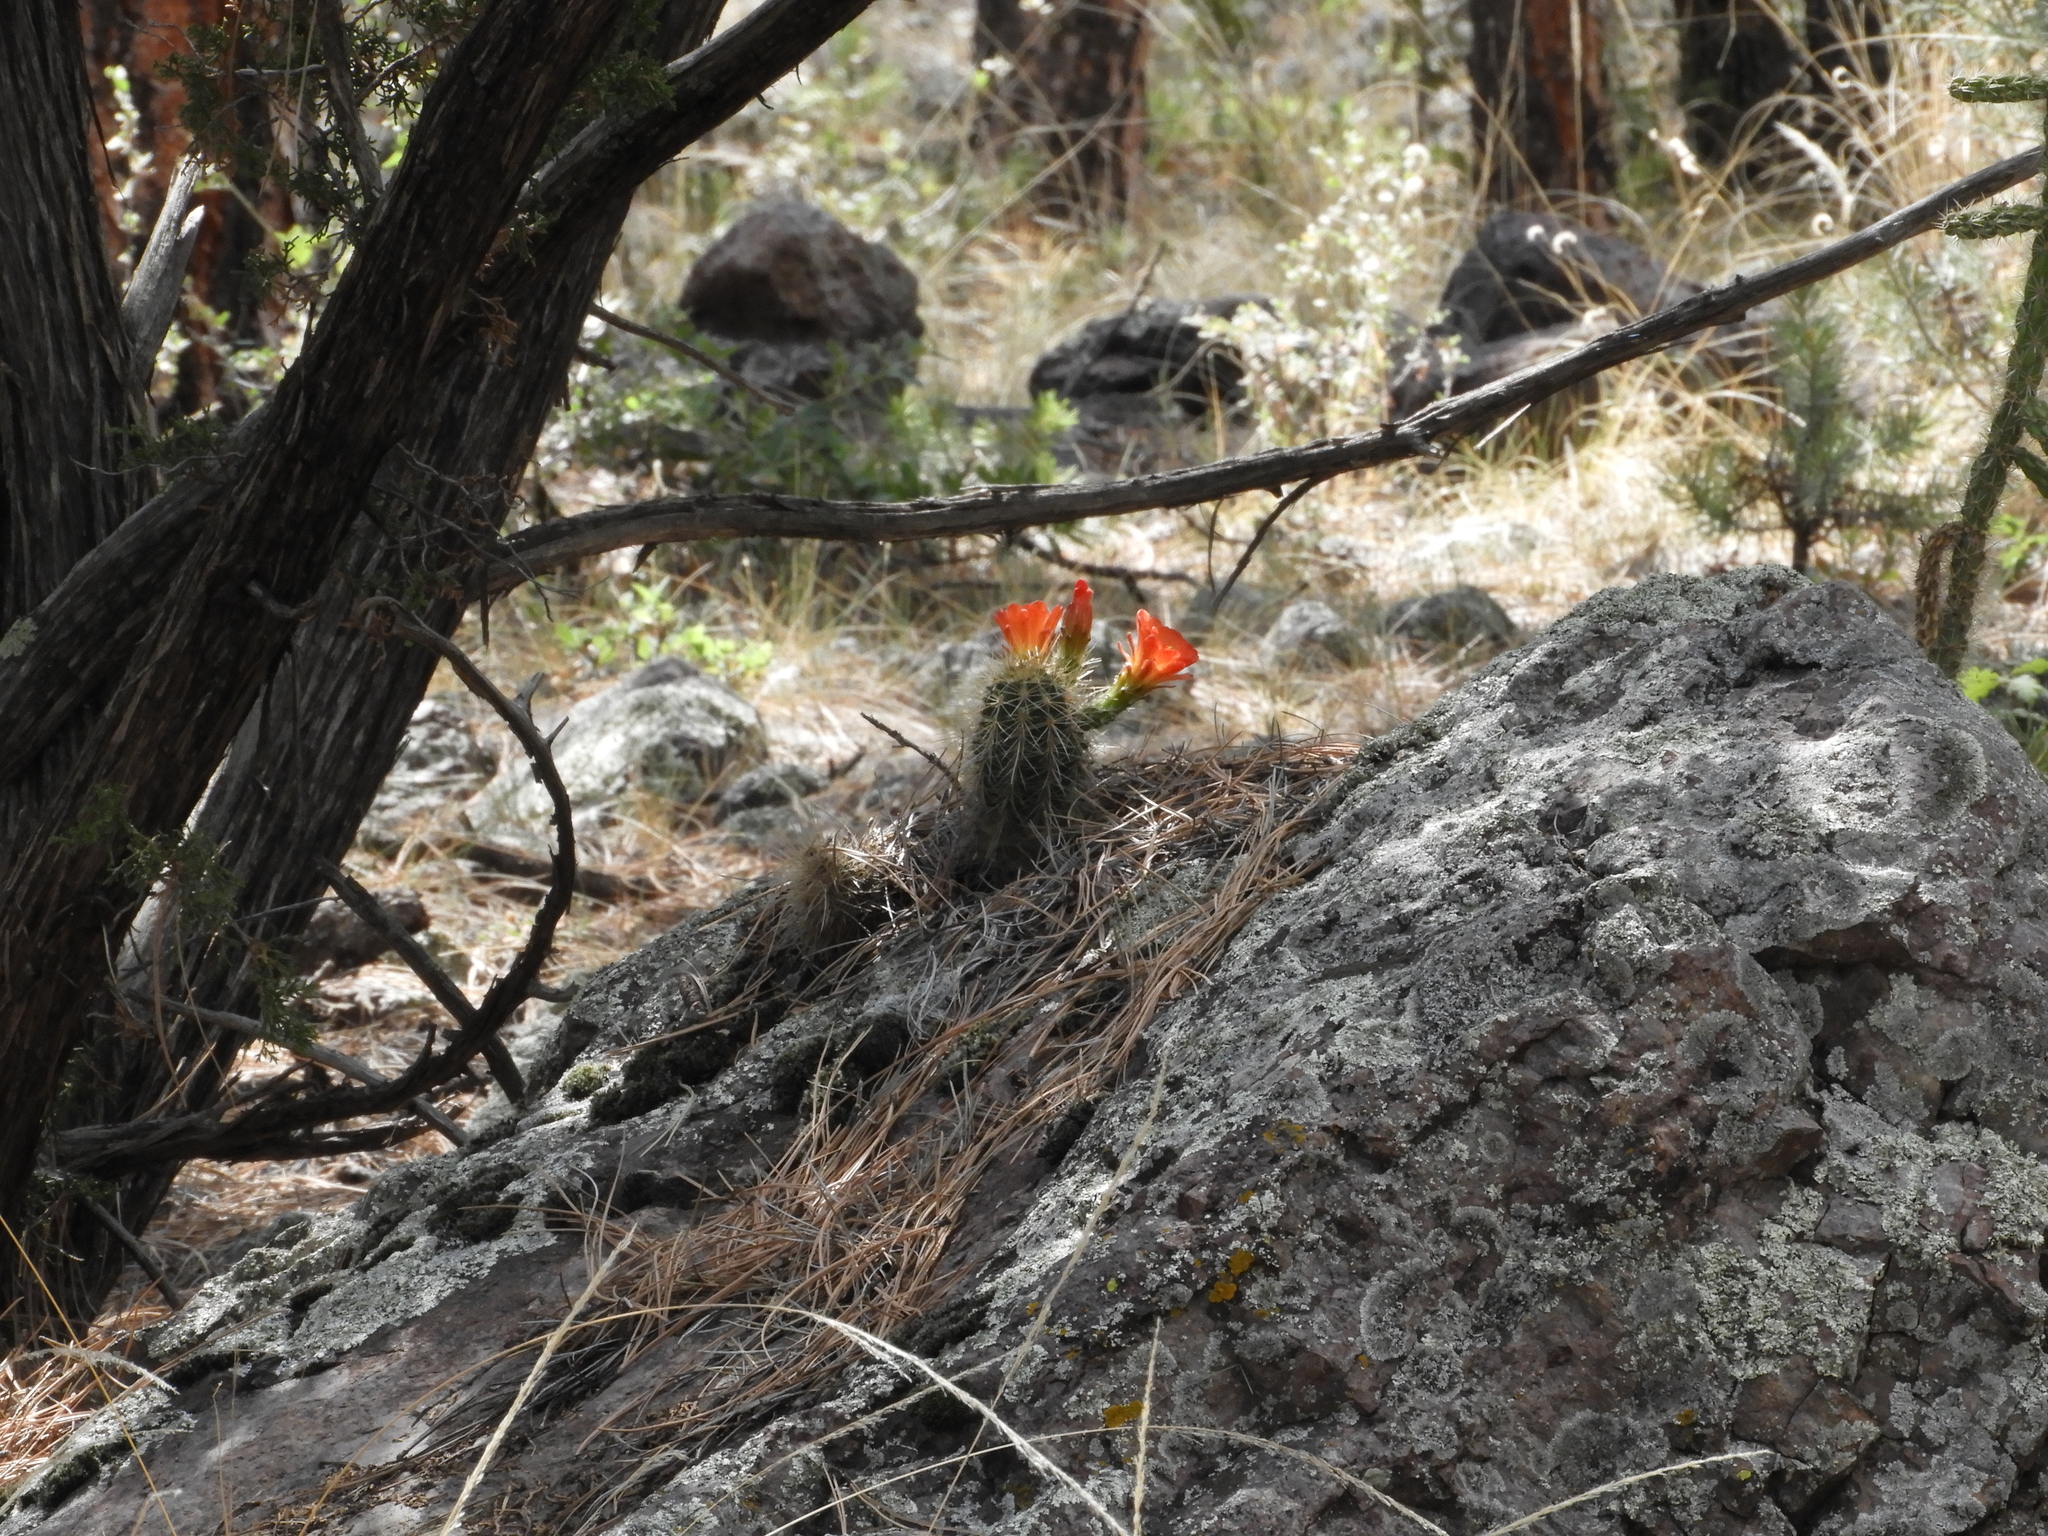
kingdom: Plantae
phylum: Tracheophyta
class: Magnoliopsida
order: Caryophyllales
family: Cactaceae
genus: Echinocereus
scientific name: Echinocereus coccineus
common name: Scarlet hedgehog cactus
